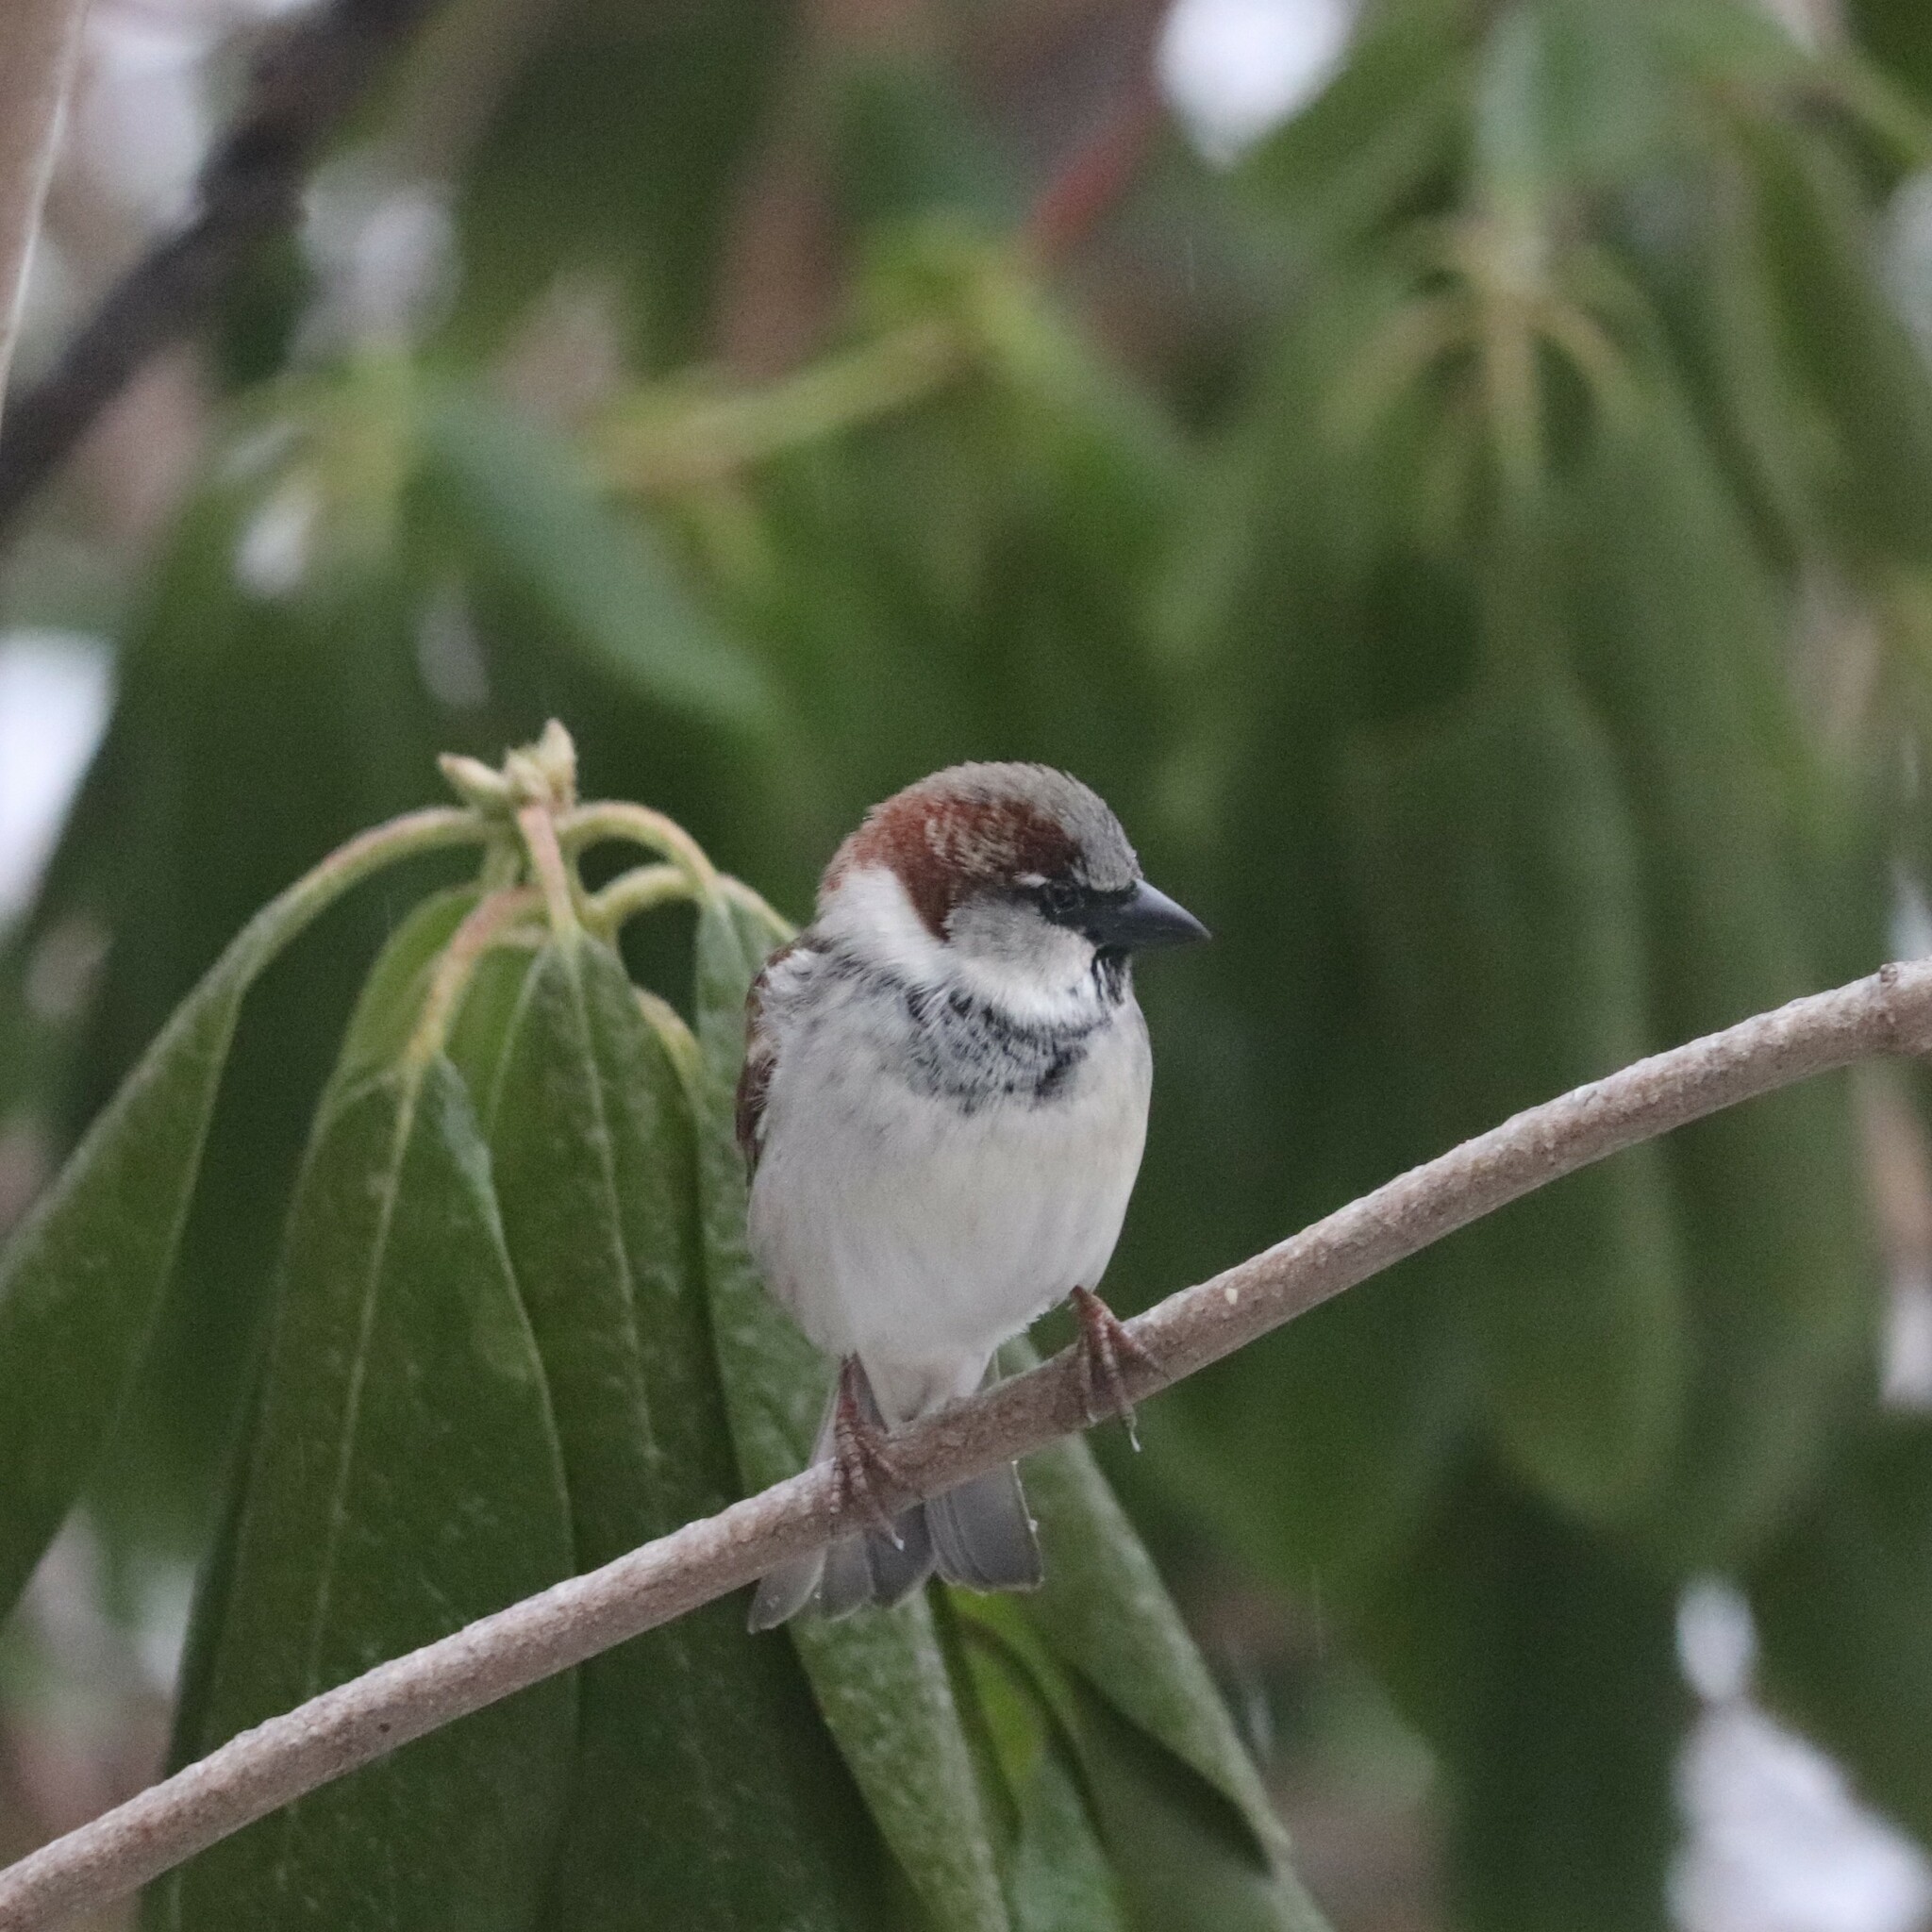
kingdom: Animalia
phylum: Chordata
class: Aves
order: Passeriformes
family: Passeridae
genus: Passer
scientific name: Passer domesticus
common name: House sparrow
